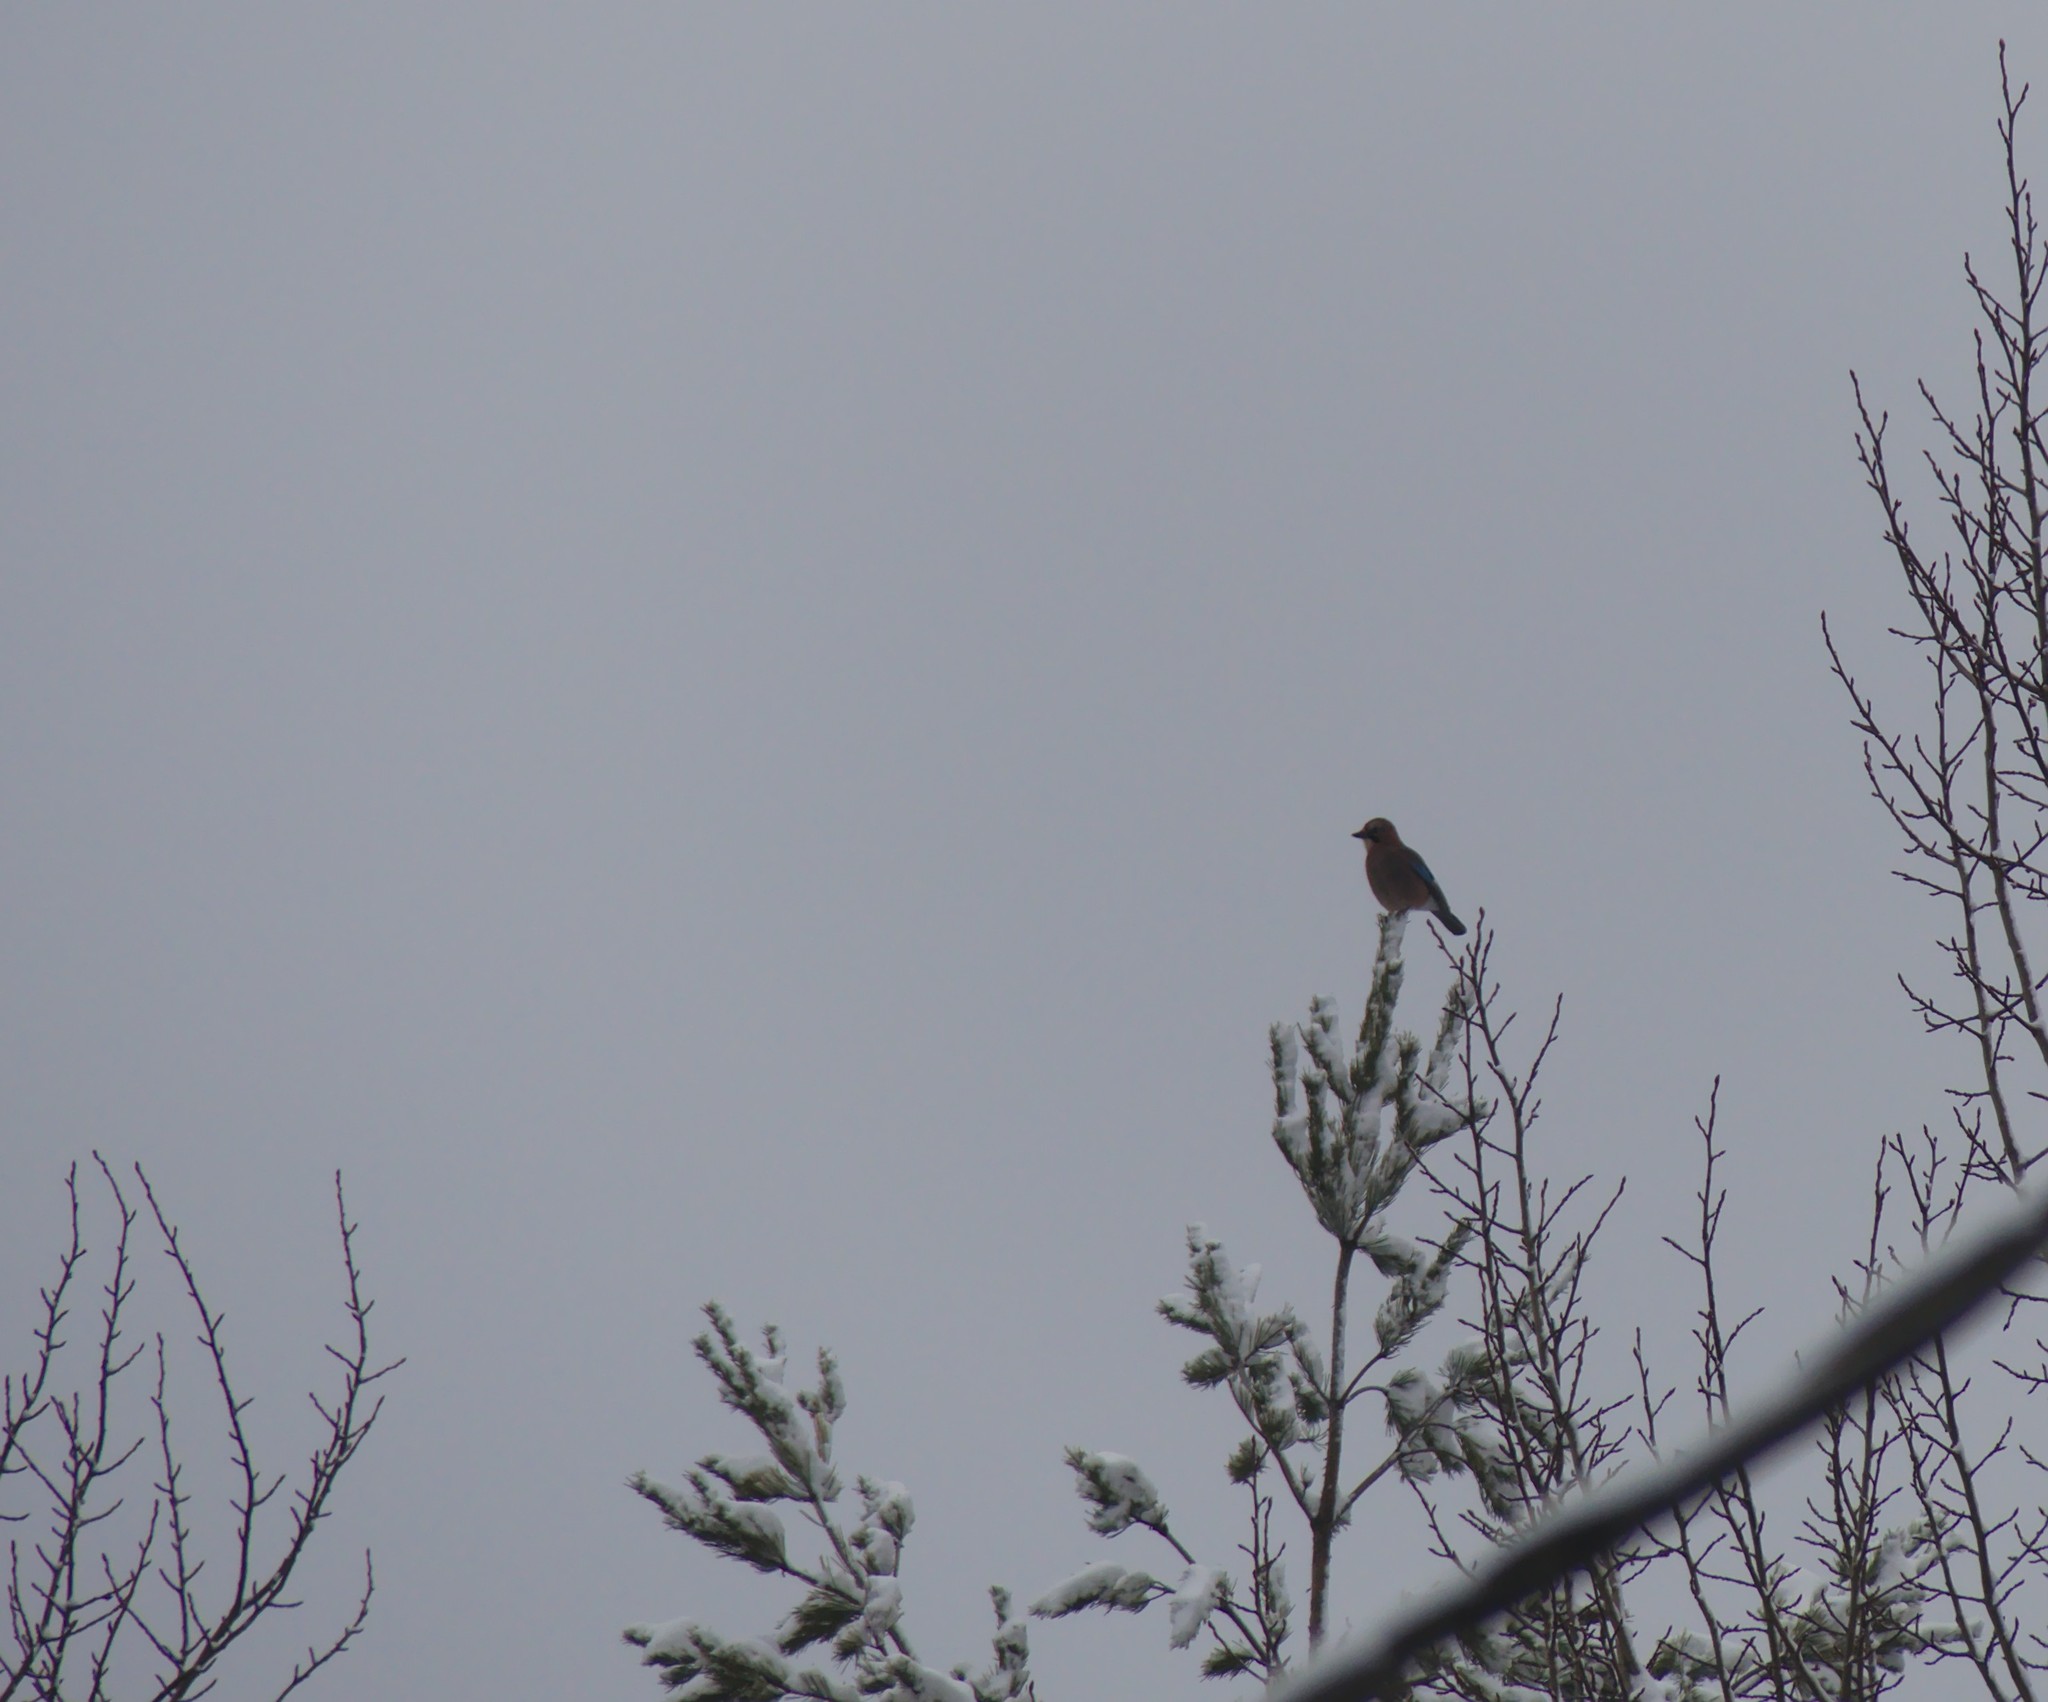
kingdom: Animalia
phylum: Chordata
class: Aves
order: Passeriformes
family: Corvidae
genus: Garrulus
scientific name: Garrulus glandarius
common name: Eurasian jay
